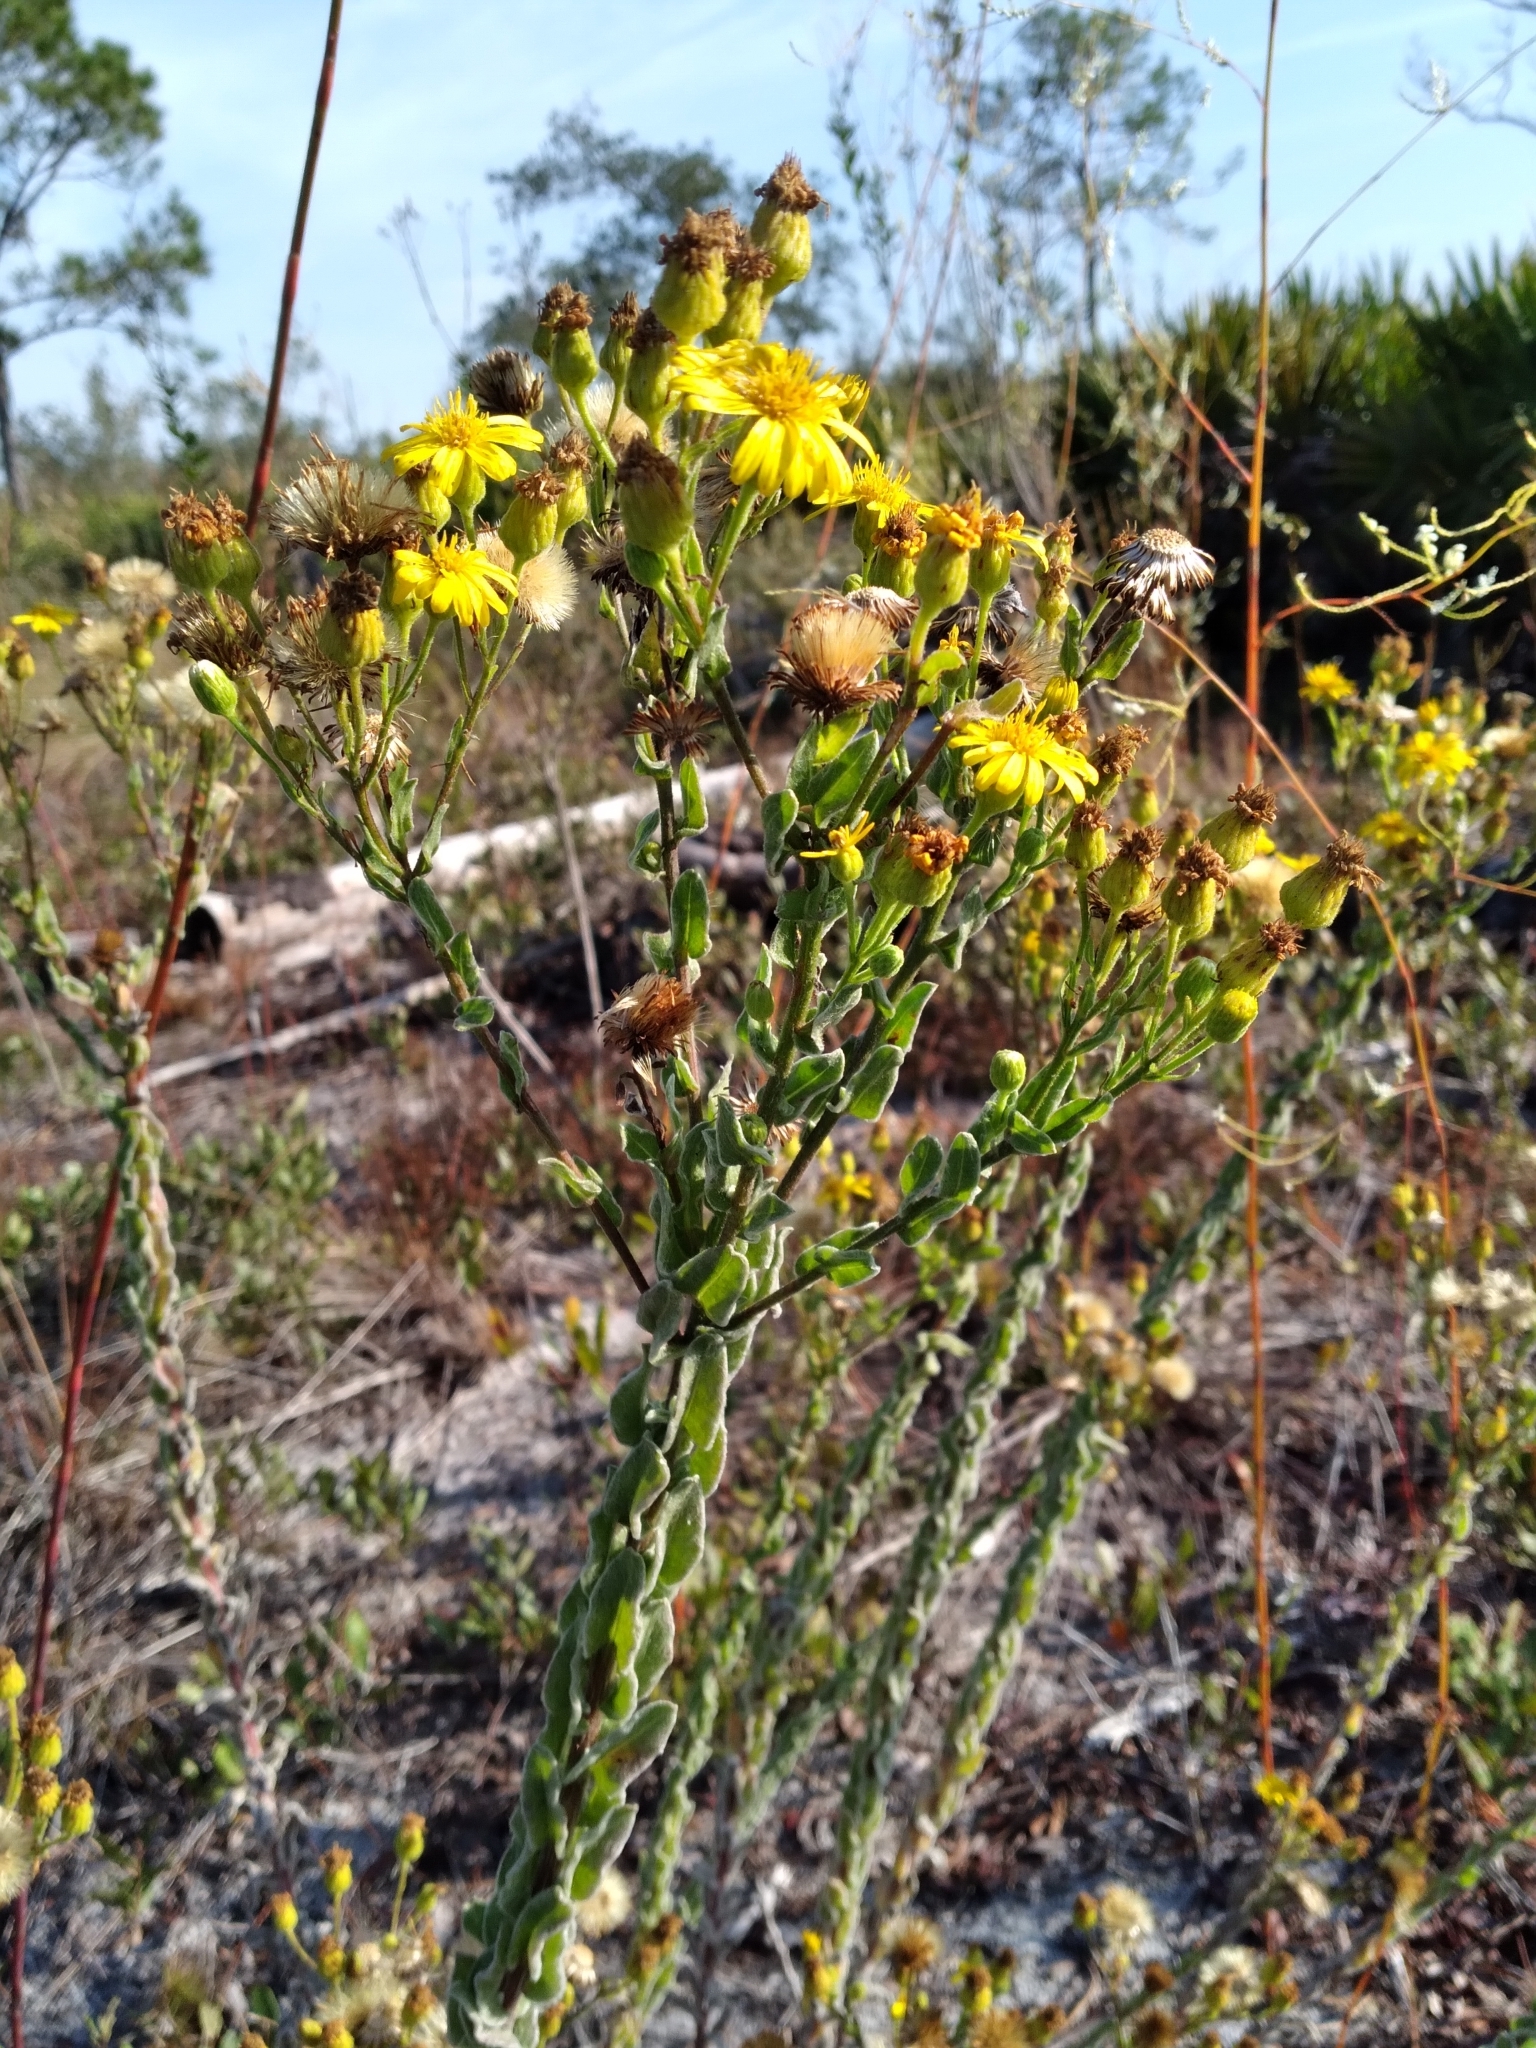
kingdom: Plantae
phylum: Tracheophyta
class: Magnoliopsida
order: Asterales
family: Asteraceae
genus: Chrysopsis
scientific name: Chrysopsis floridana
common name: Florida golden-aster
